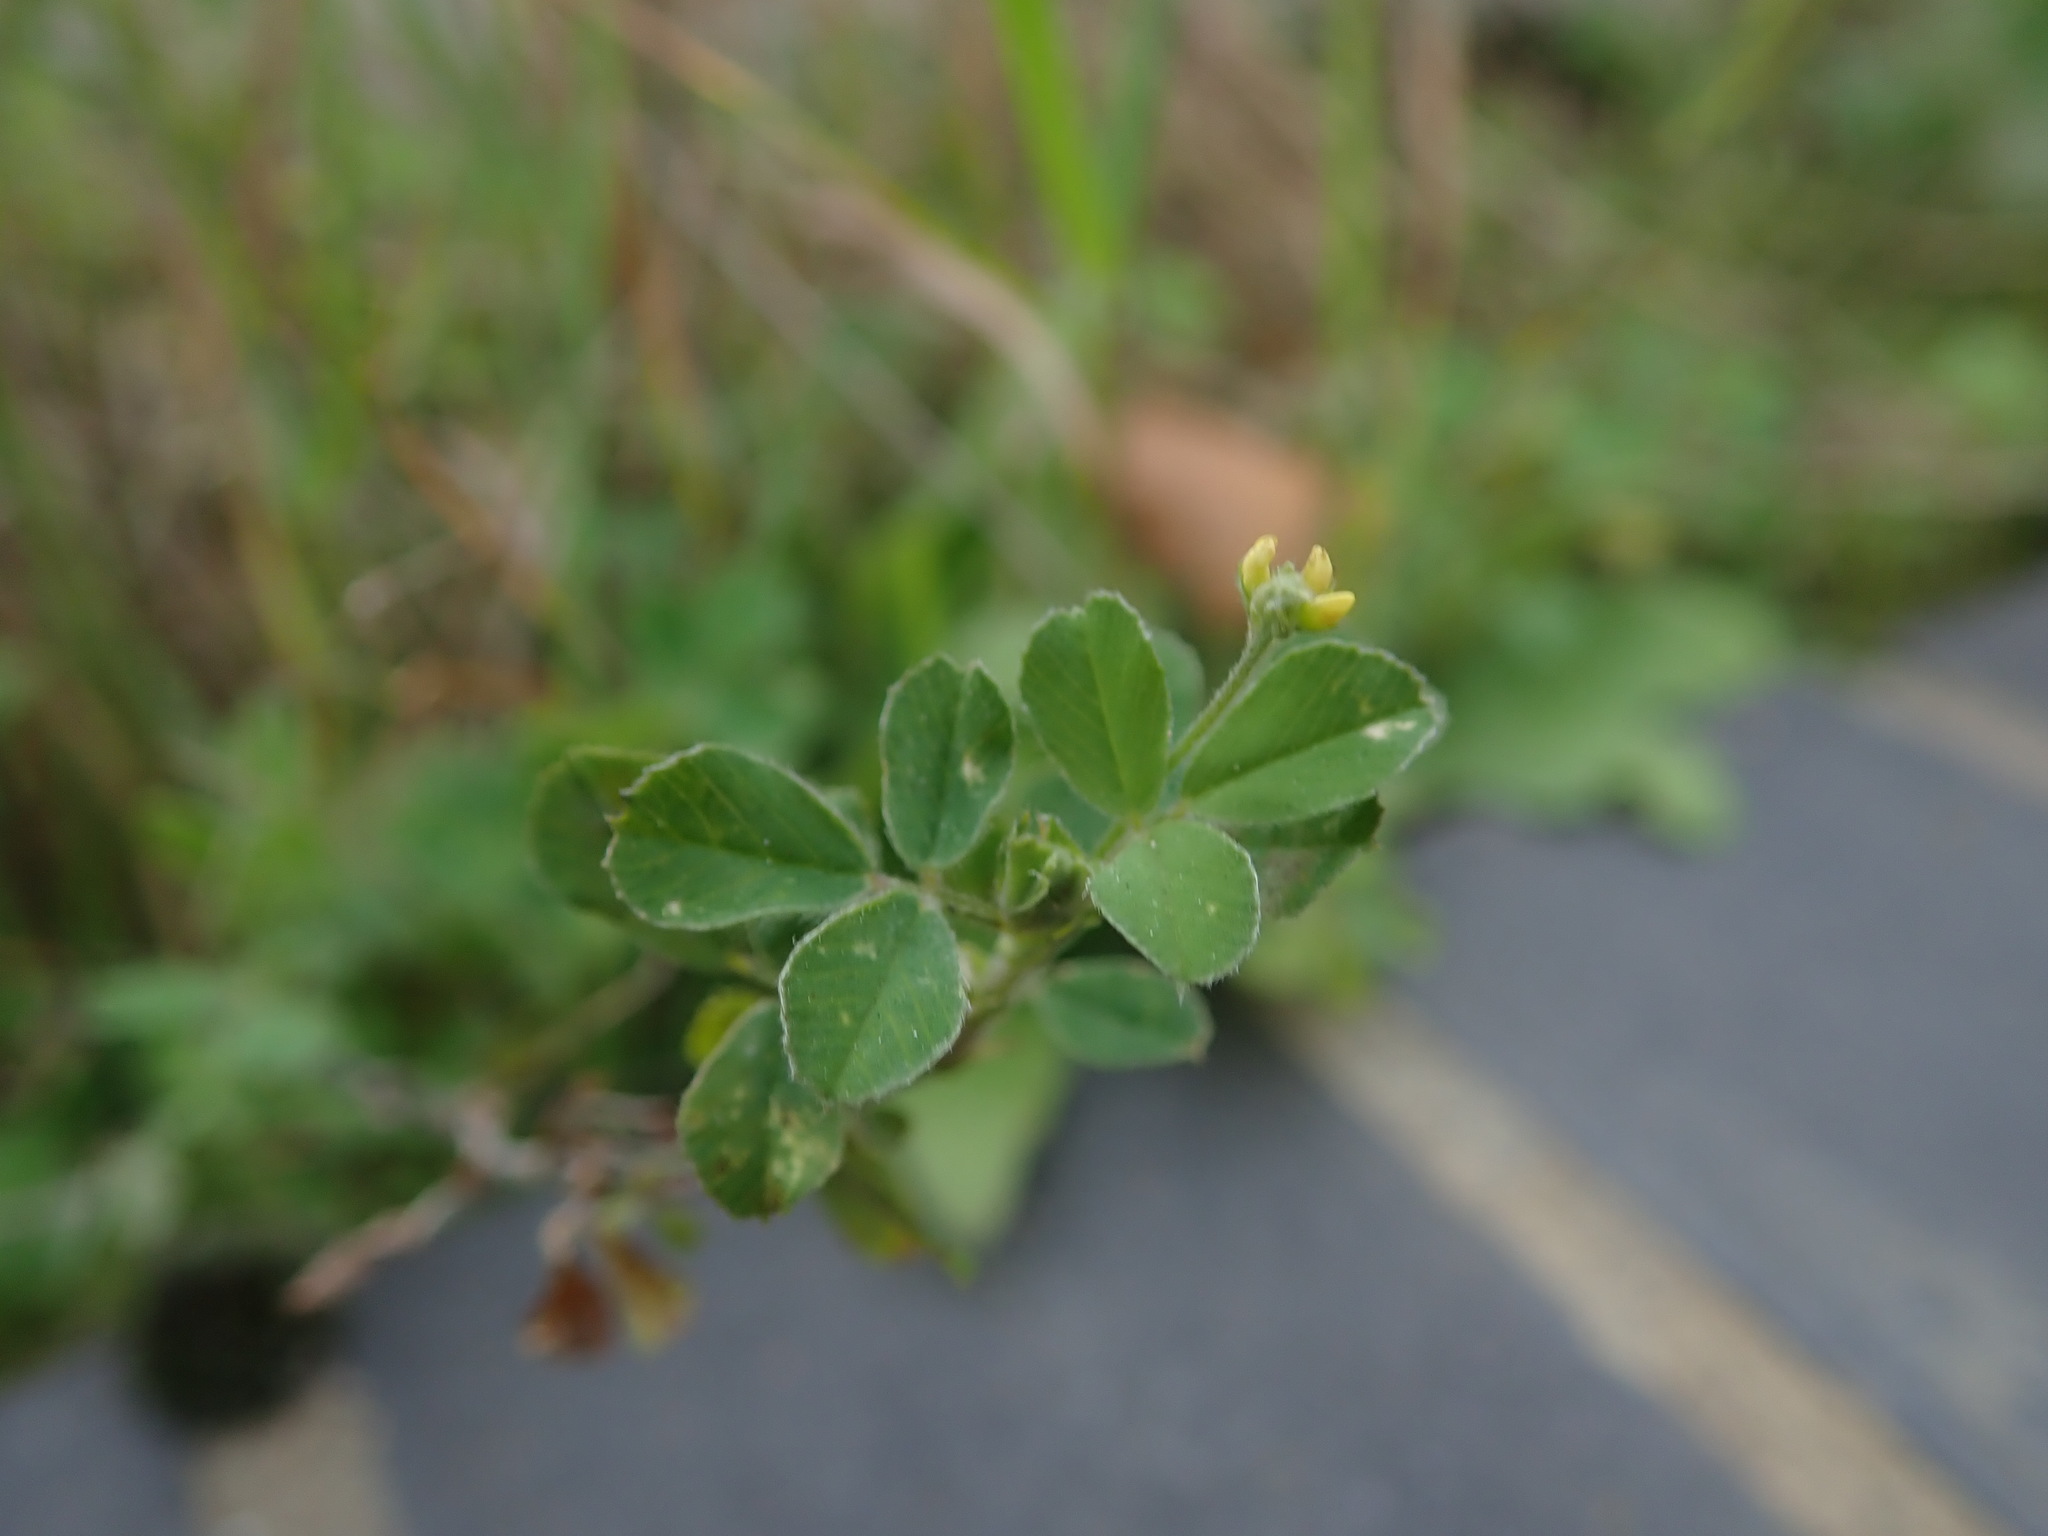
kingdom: Plantae
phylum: Tracheophyta
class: Magnoliopsida
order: Fabales
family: Fabaceae
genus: Medicago
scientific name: Medicago lupulina
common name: Black medick
